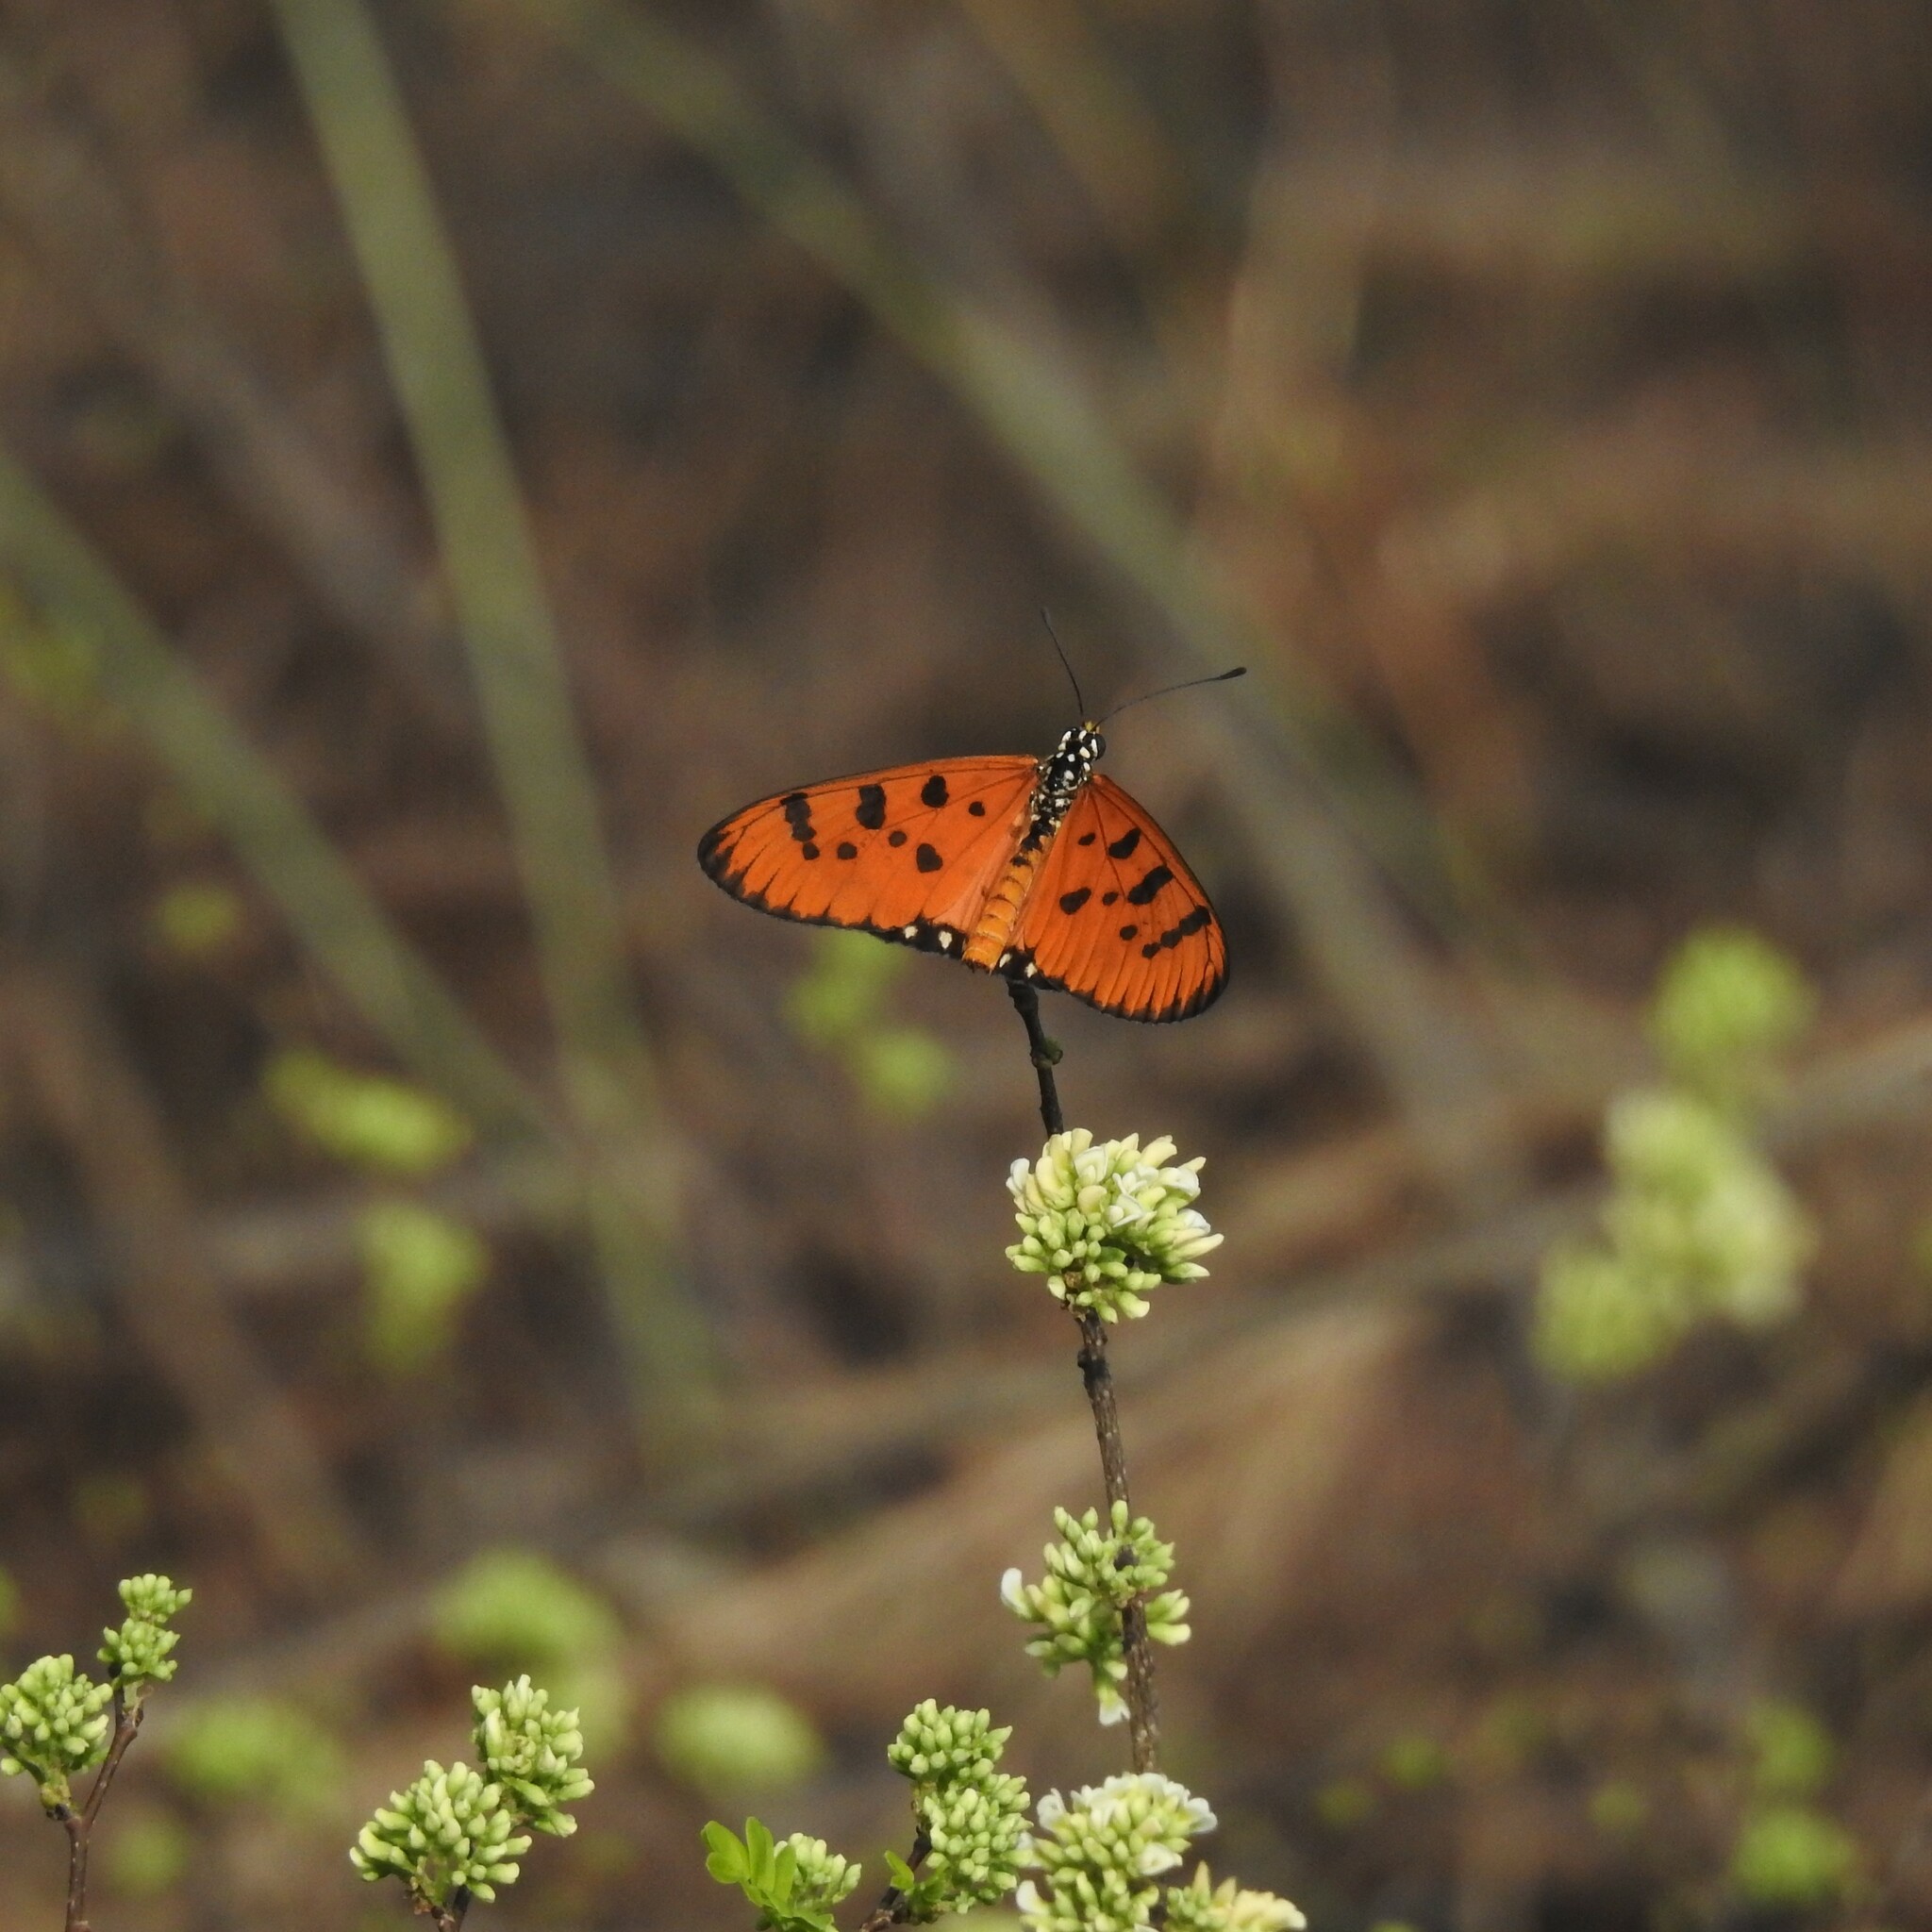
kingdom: Animalia
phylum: Arthropoda
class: Insecta
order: Lepidoptera
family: Nymphalidae
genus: Acraea
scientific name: Acraea terpsicore
